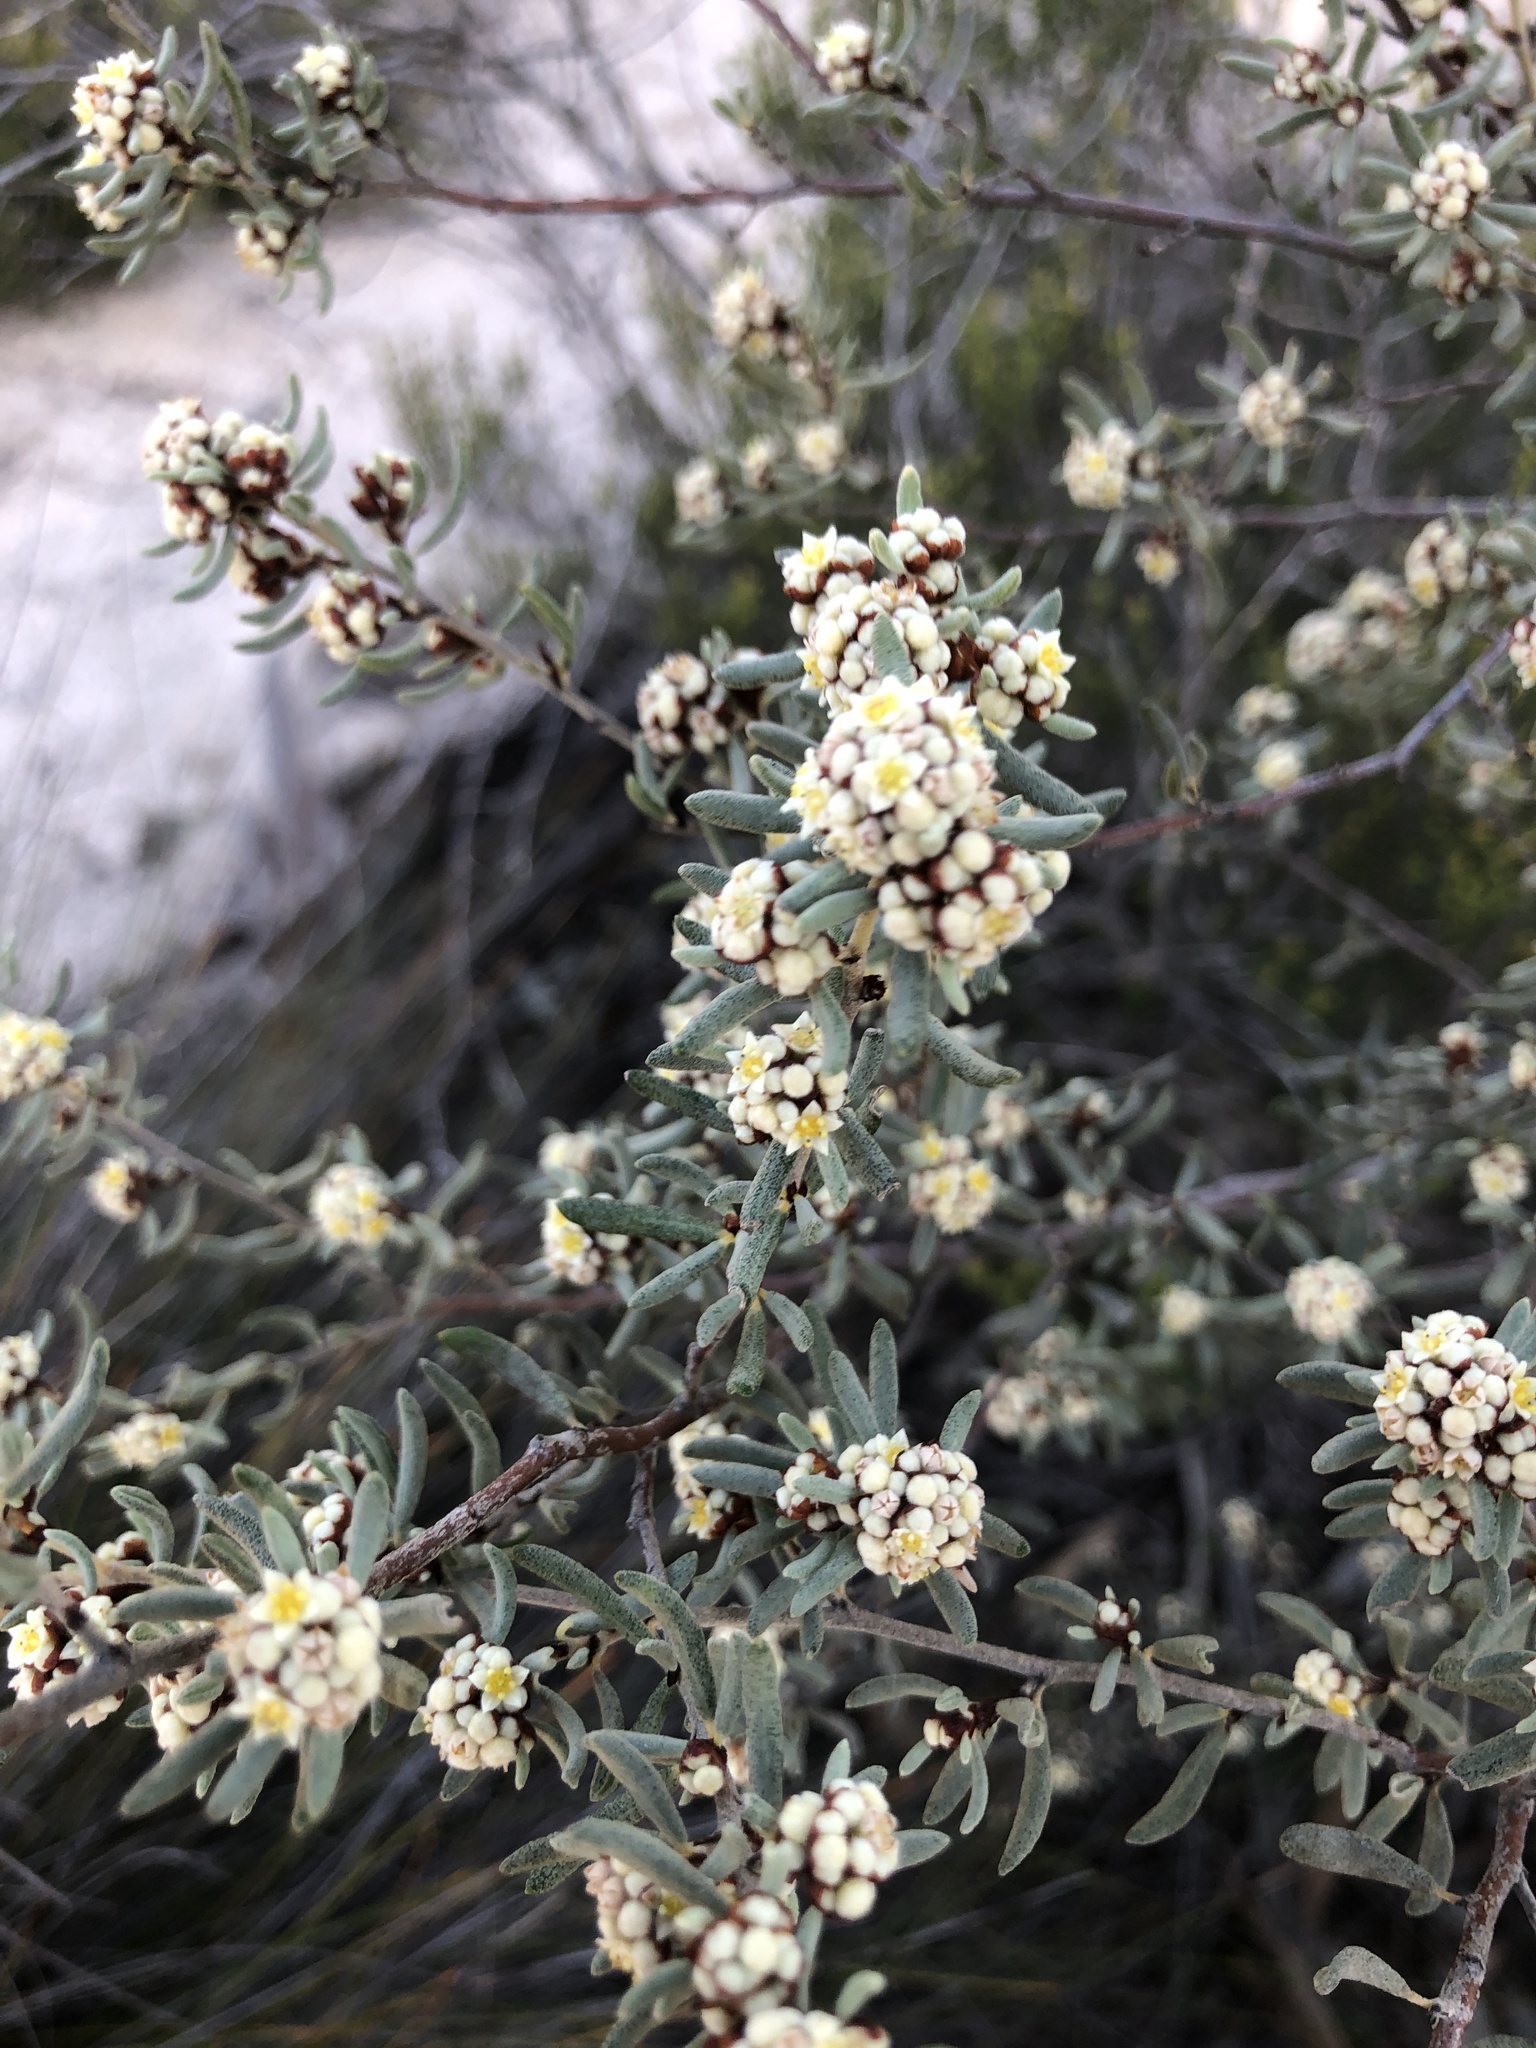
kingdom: Plantae
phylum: Tracheophyta
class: Magnoliopsida
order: Rosales
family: Rhamnaceae
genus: Spyridium
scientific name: Spyridium subochreatum
